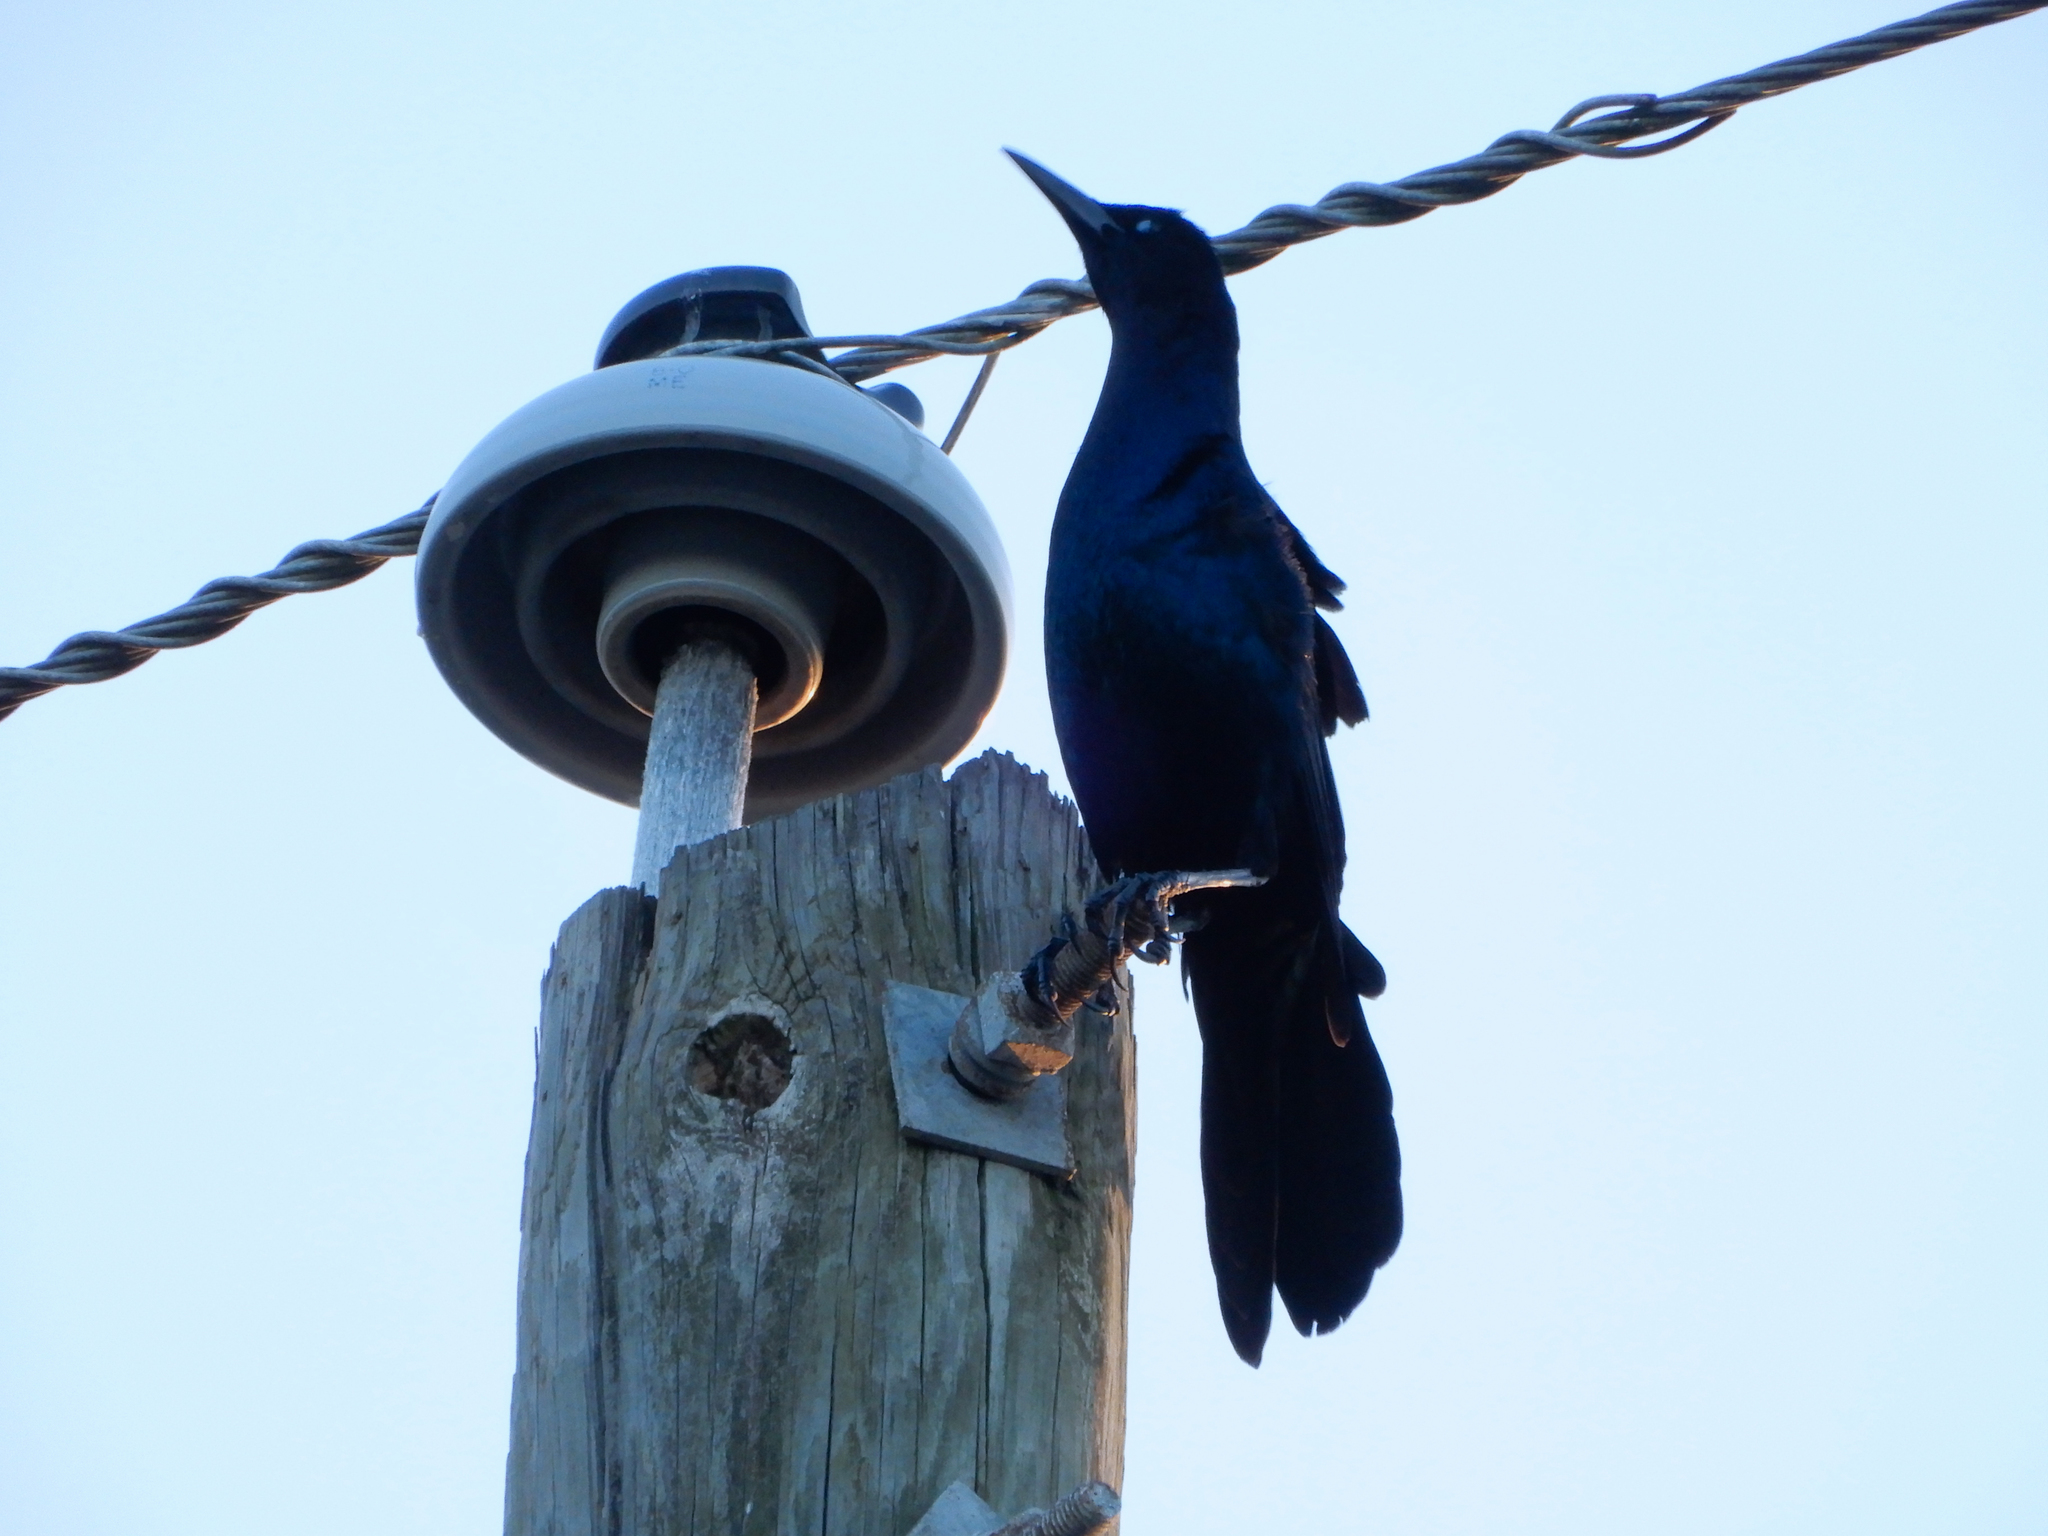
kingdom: Animalia
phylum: Chordata
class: Aves
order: Passeriformes
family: Icteridae
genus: Quiscalus
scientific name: Quiscalus major
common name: Boat-tailed grackle
